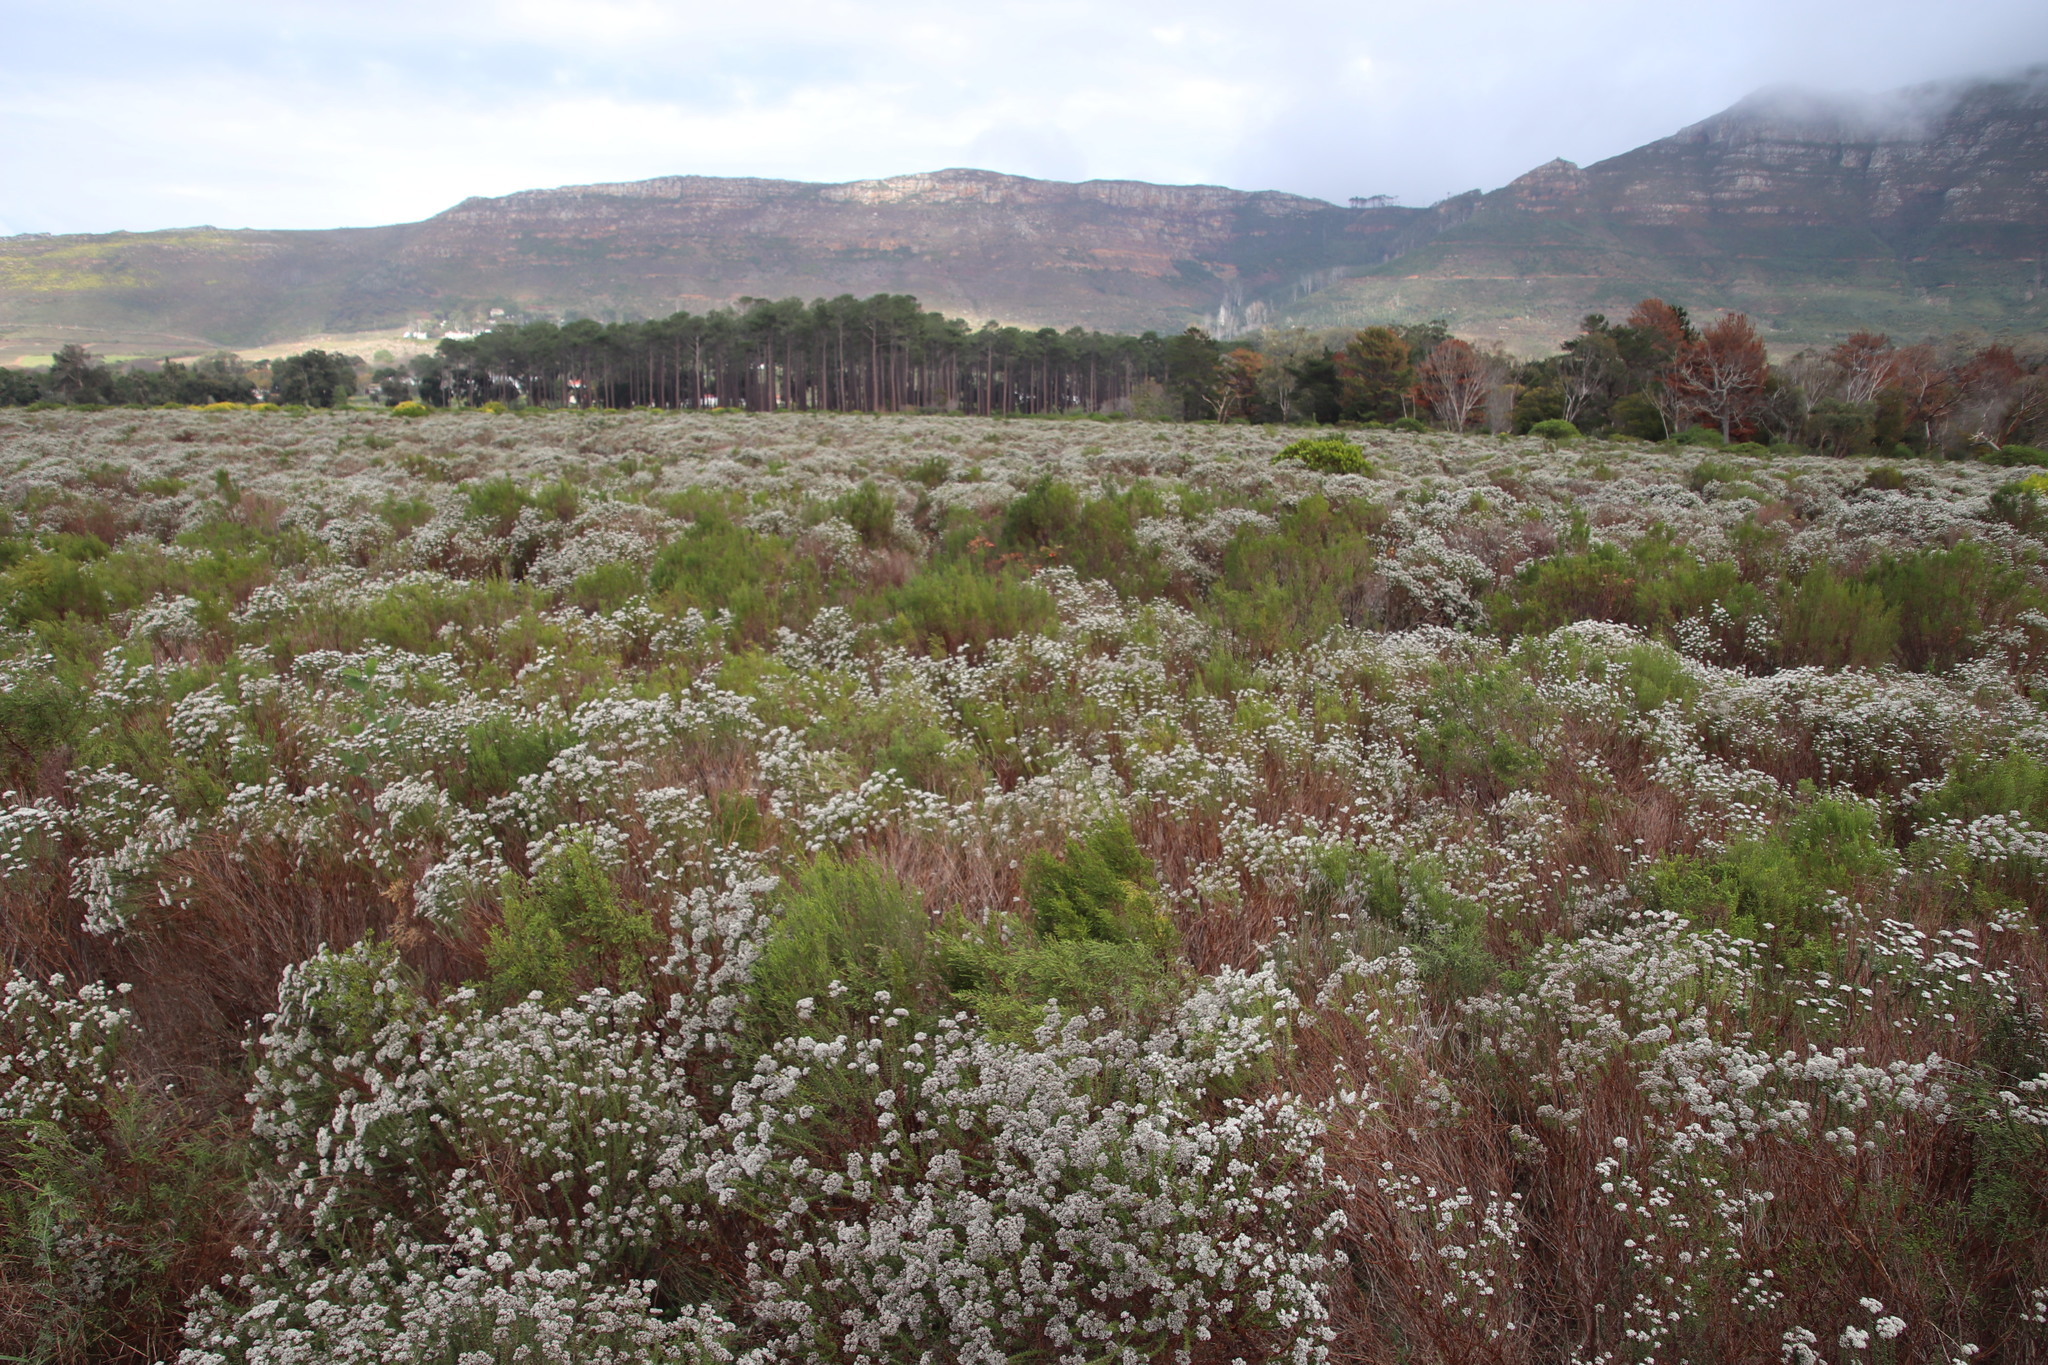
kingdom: Plantae
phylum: Tracheophyta
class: Magnoliopsida
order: Malvales
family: Thymelaeaceae
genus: Passerina
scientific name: Passerina corymbosa
